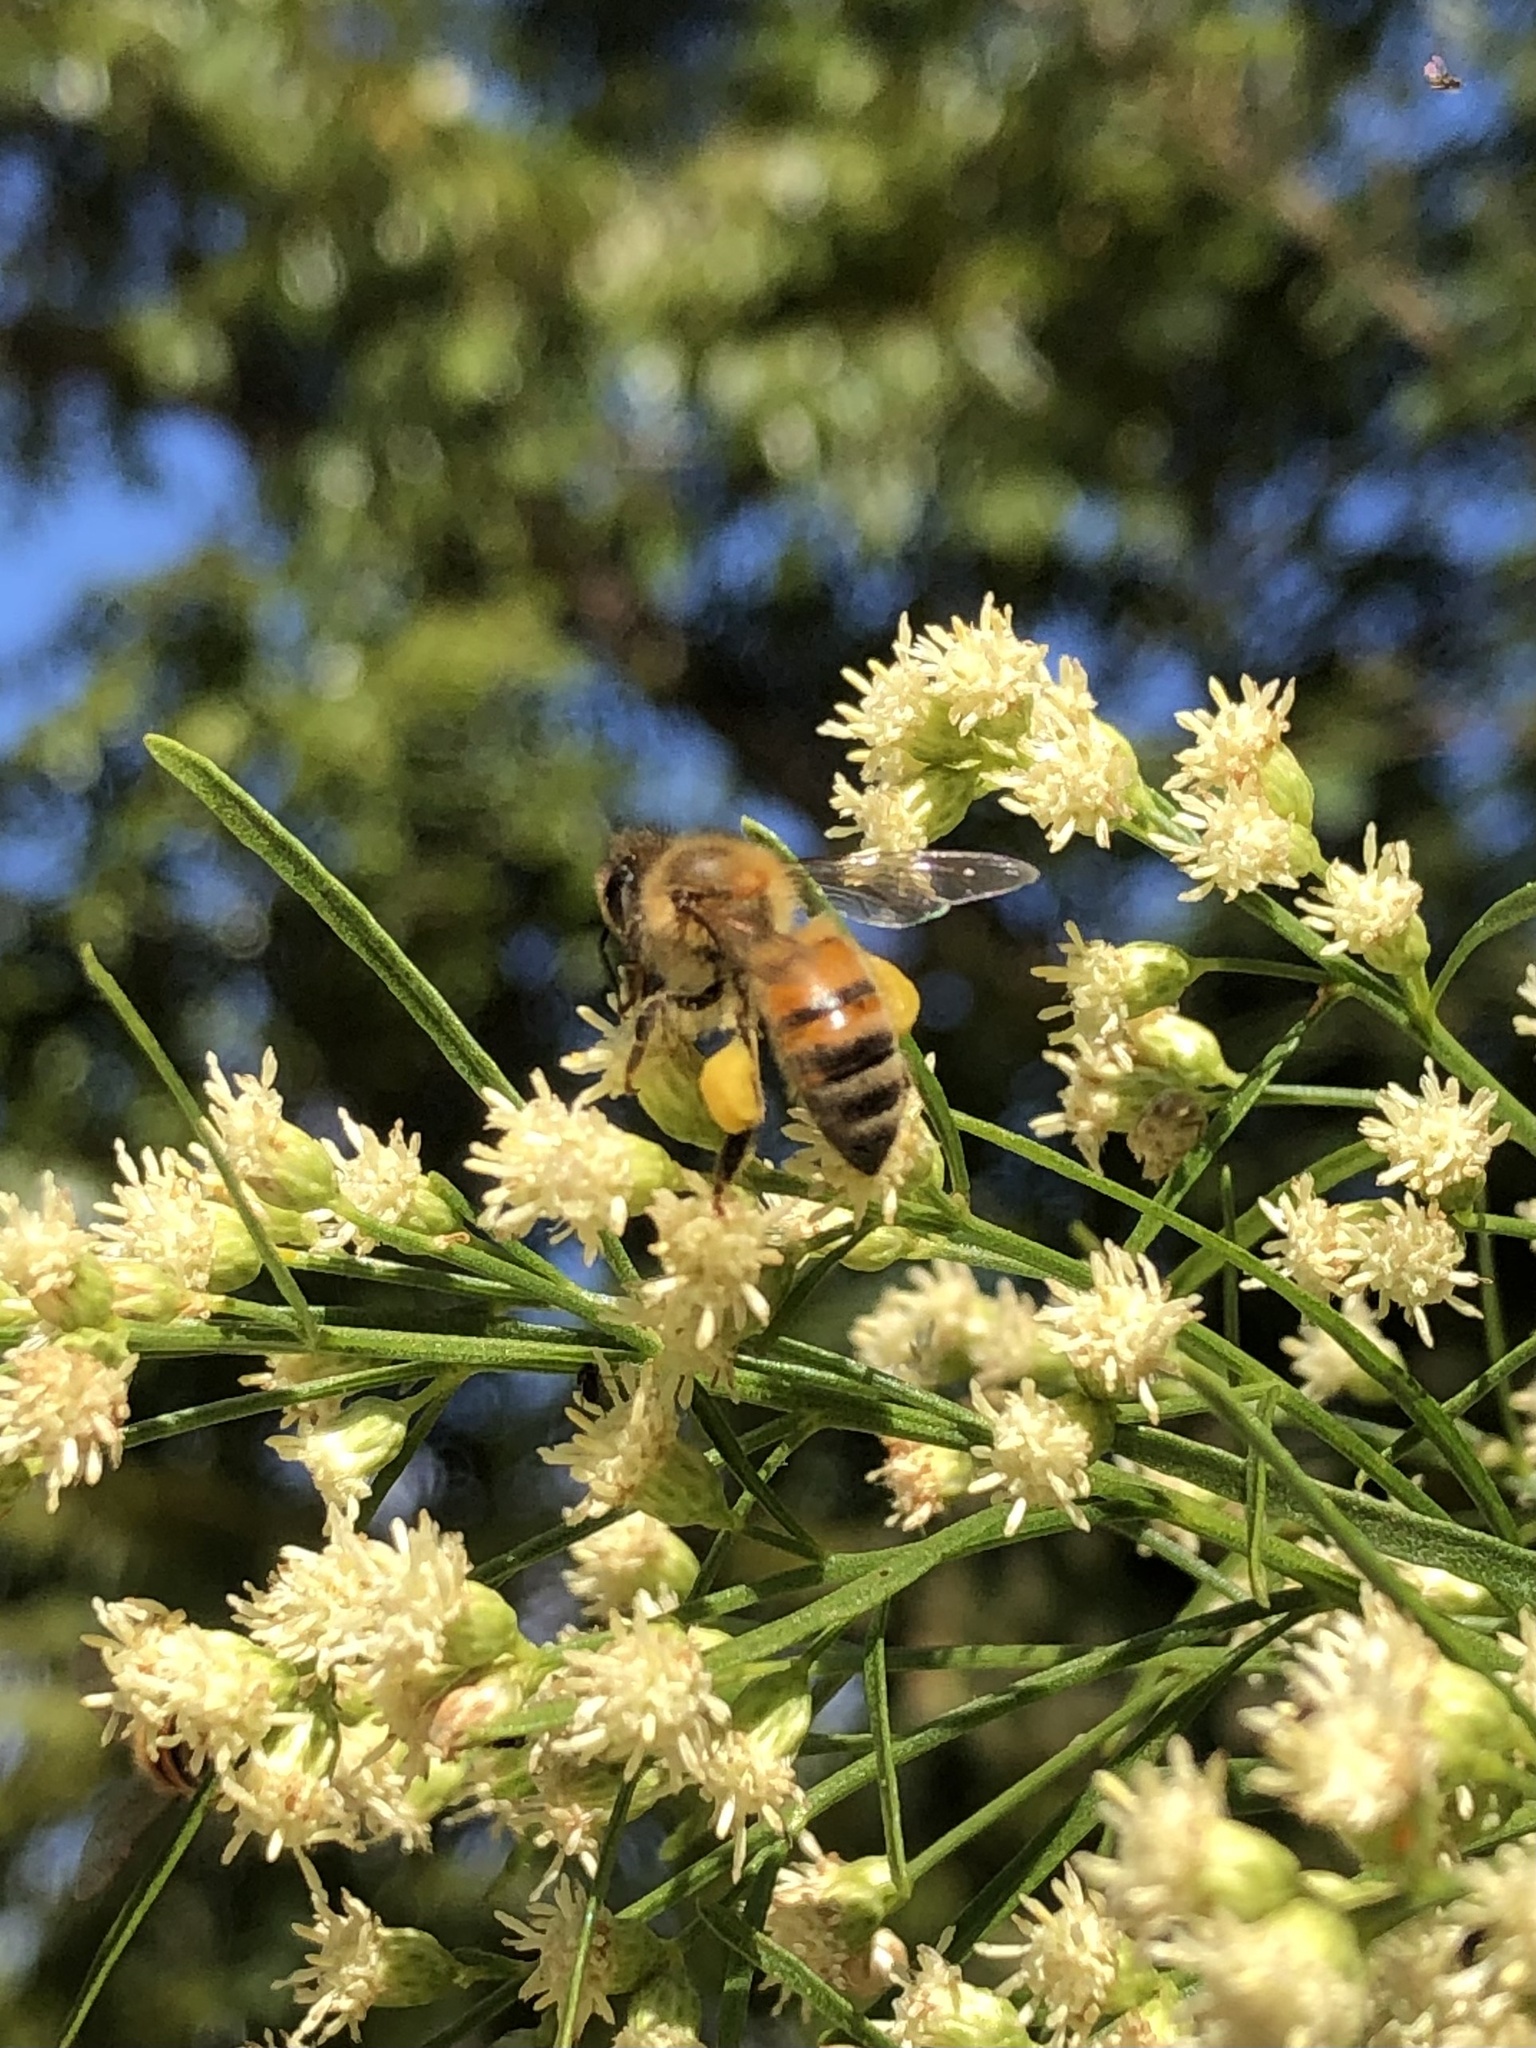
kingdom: Animalia
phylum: Arthropoda
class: Insecta
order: Hymenoptera
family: Apidae
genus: Apis
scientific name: Apis mellifera
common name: Honey bee
